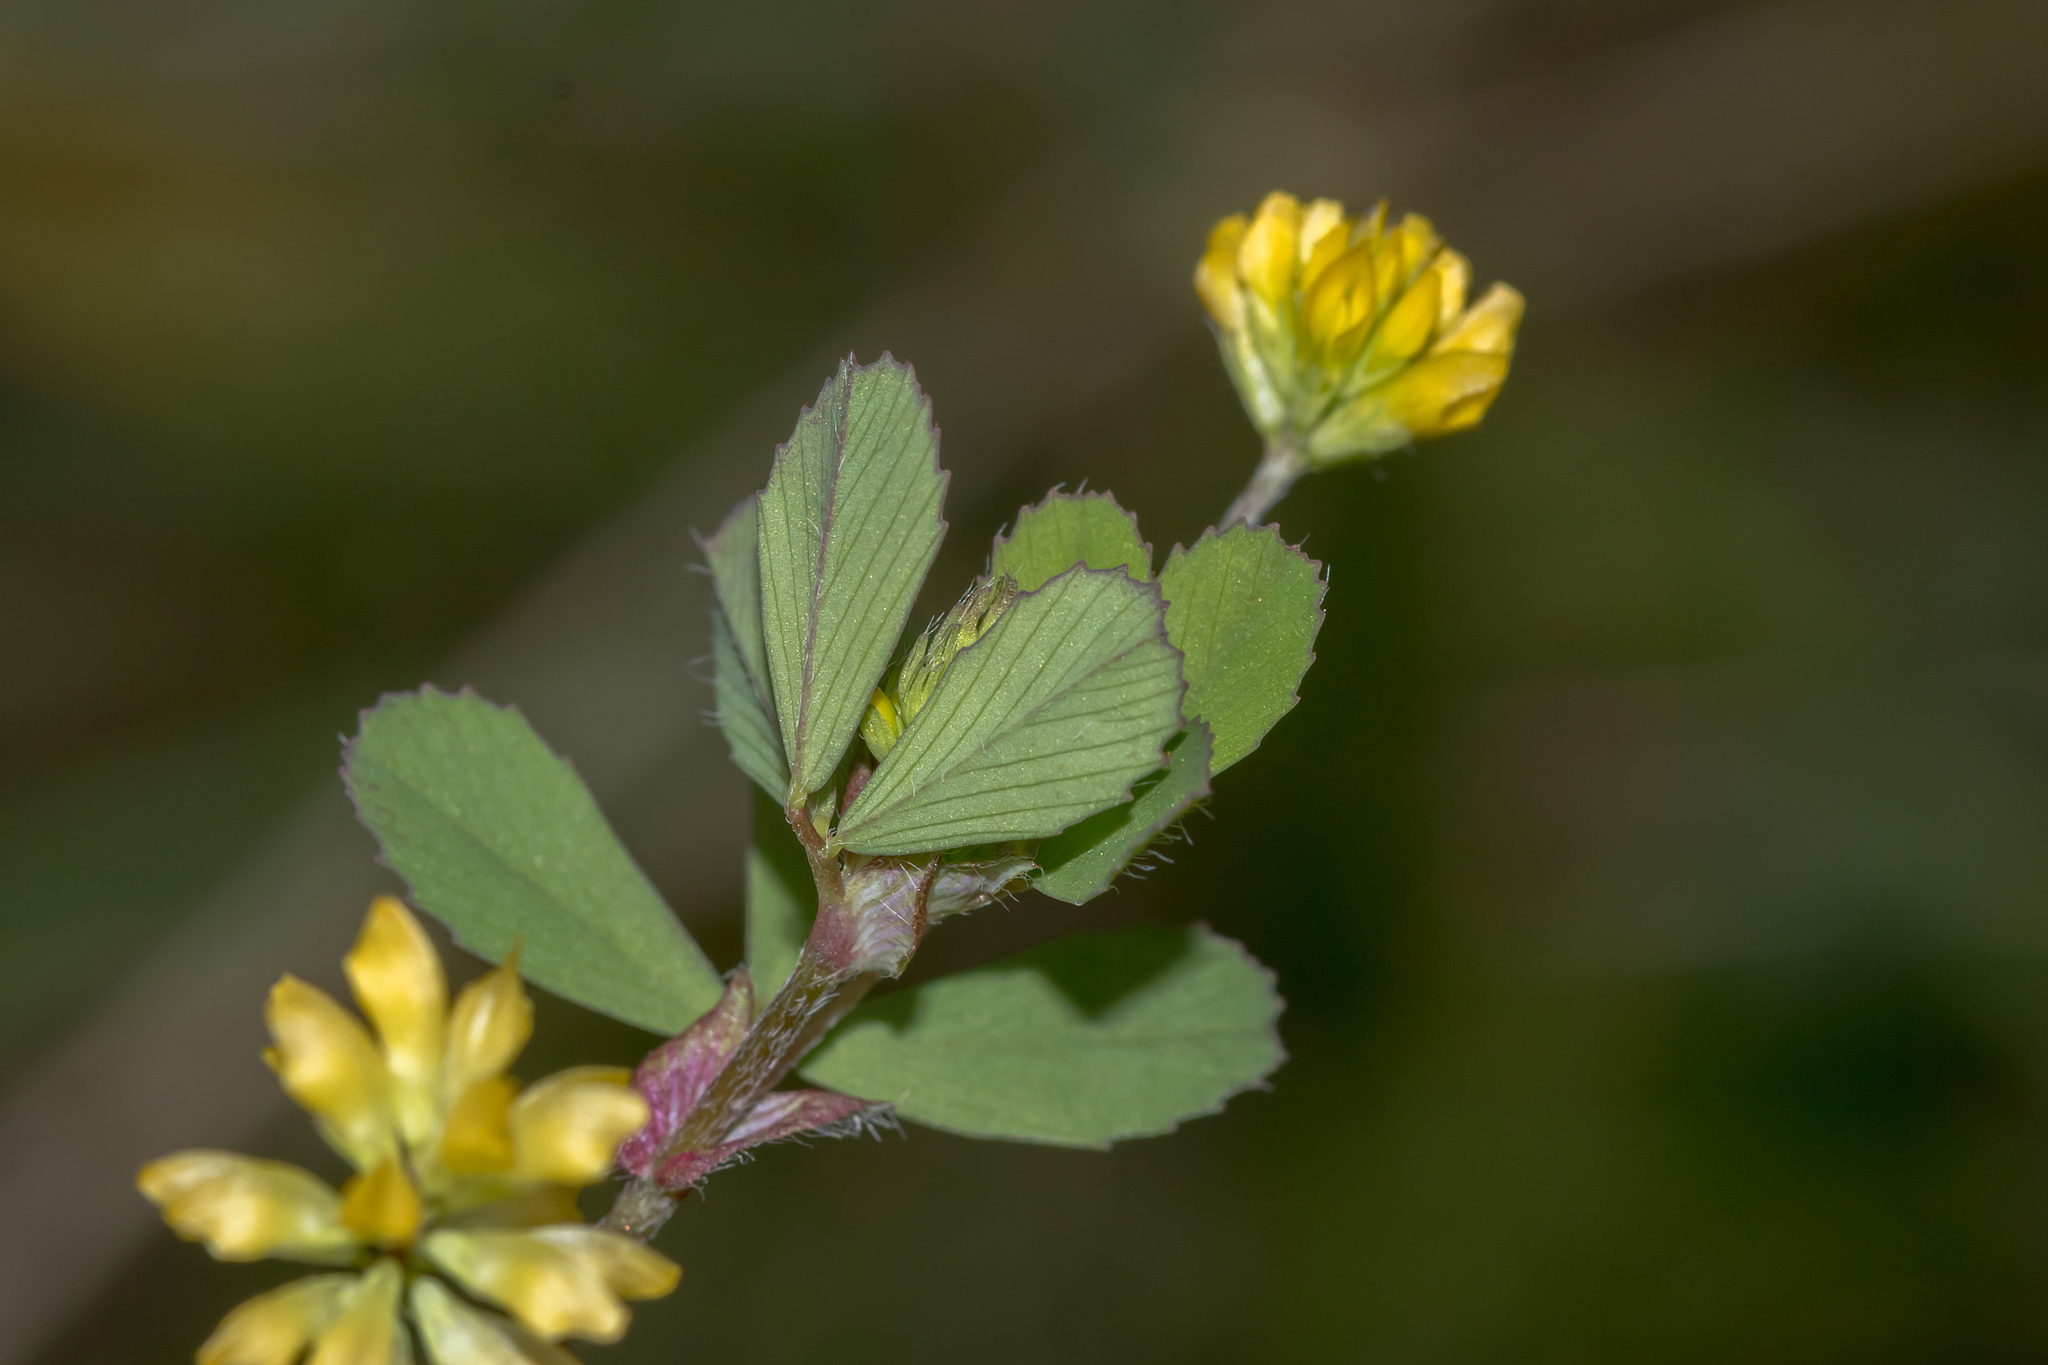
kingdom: Plantae
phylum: Tracheophyta
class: Magnoliopsida
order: Fabales
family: Fabaceae
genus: Trifolium
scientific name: Trifolium dubium
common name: Suckling clover
